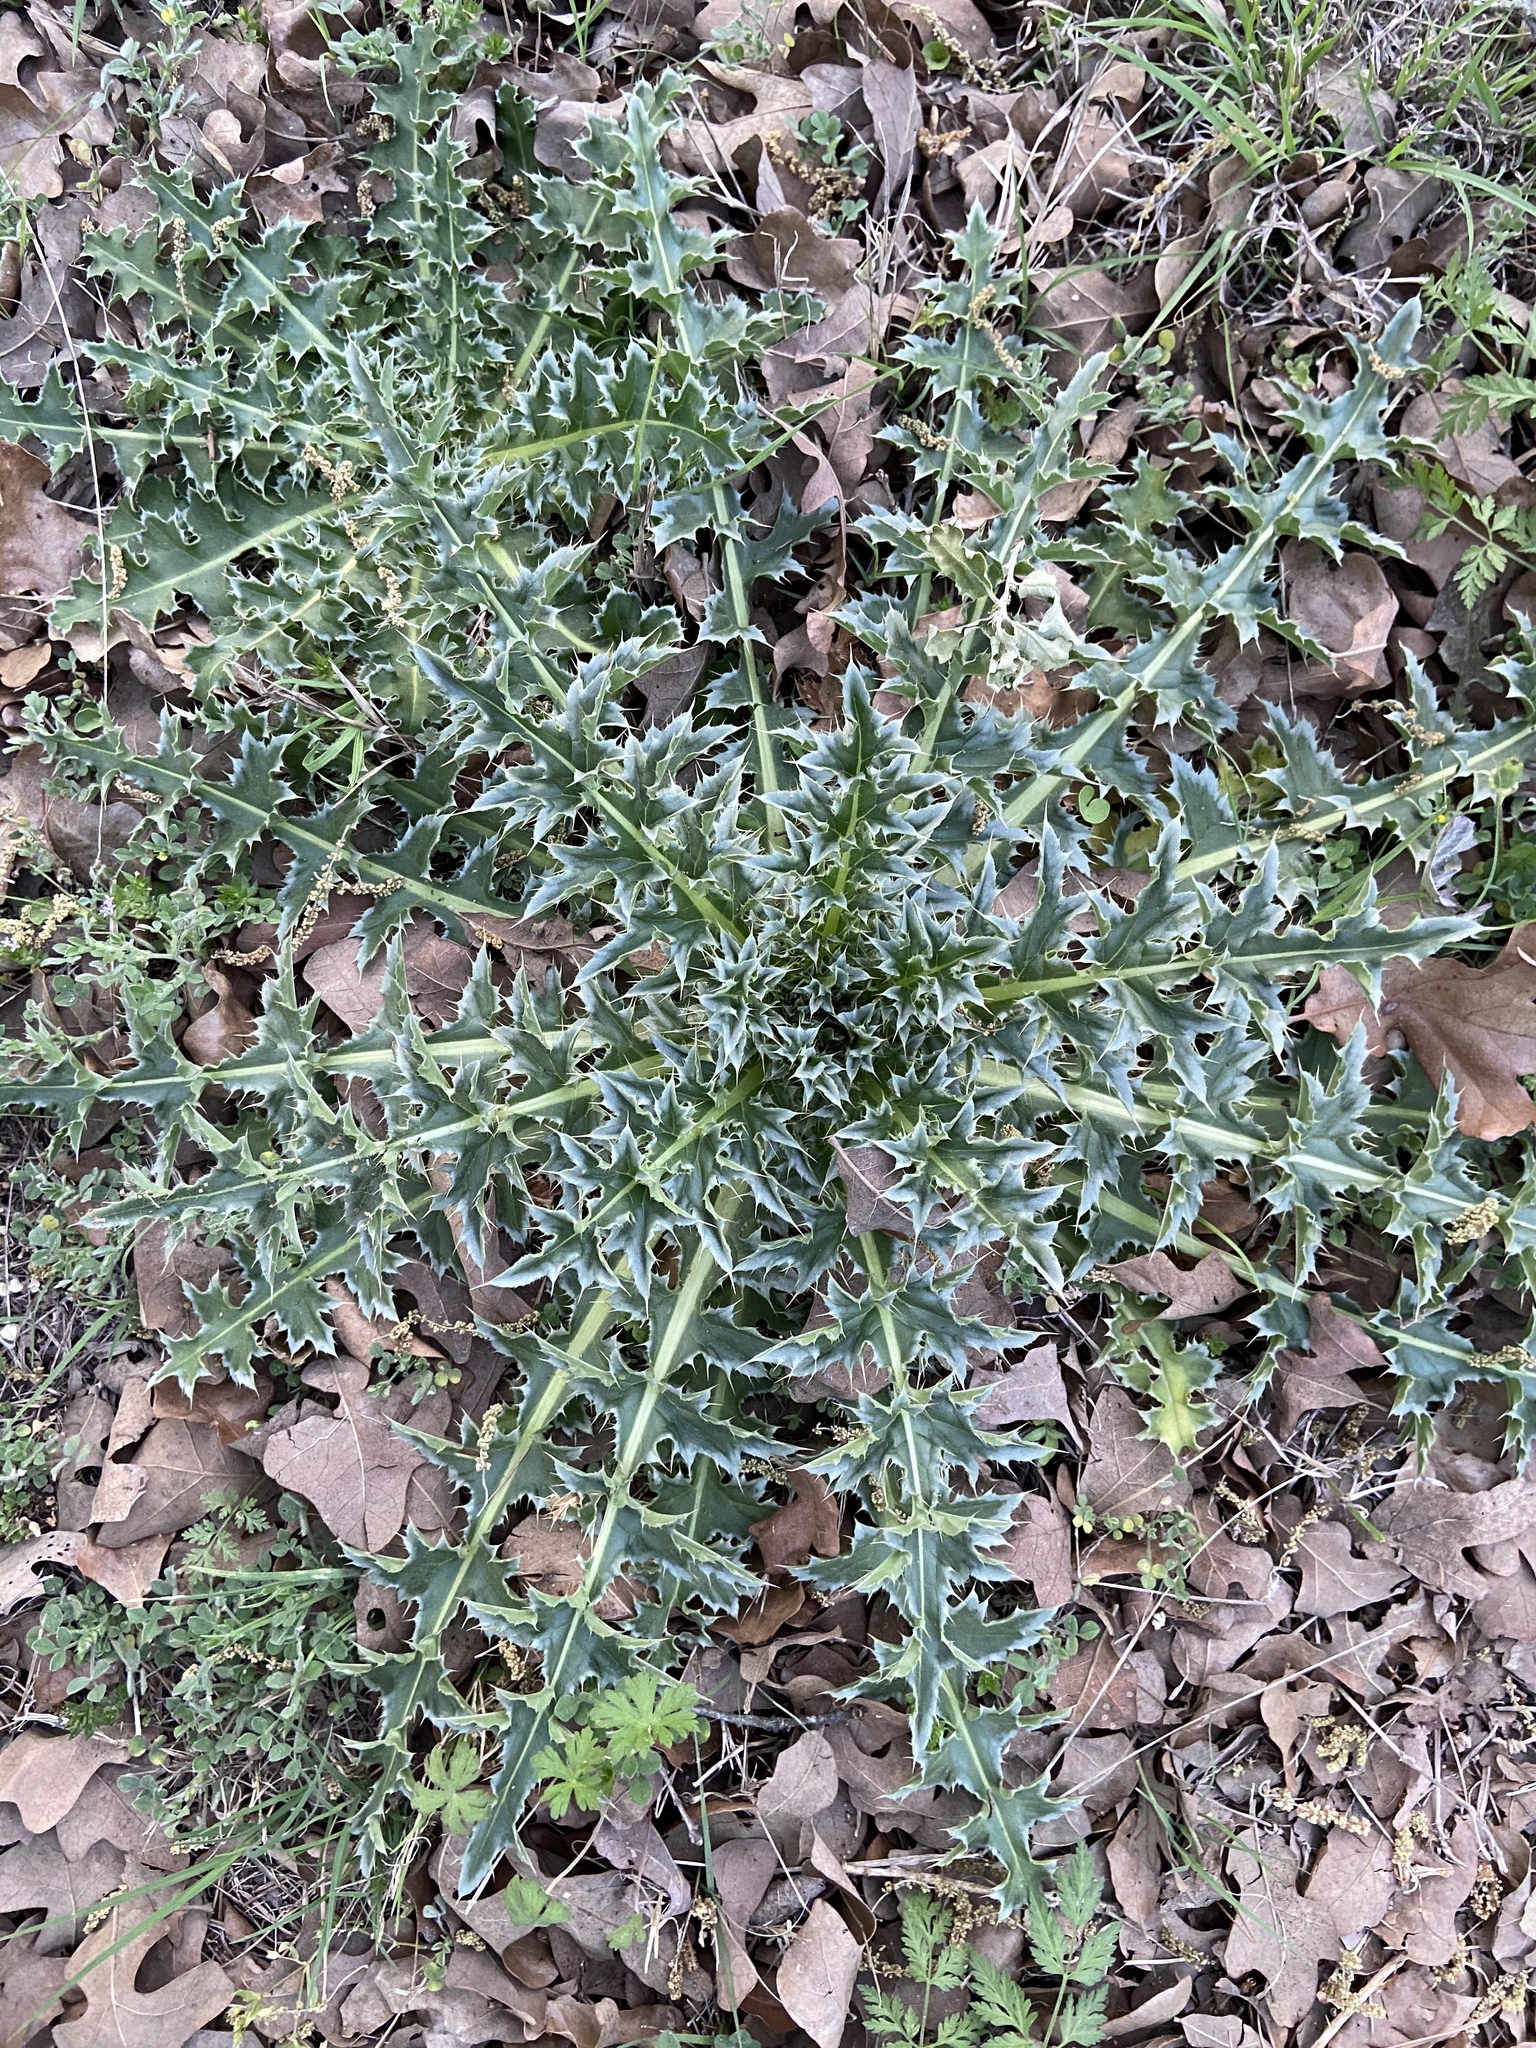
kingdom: Plantae
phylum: Tracheophyta
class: Magnoliopsida
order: Asterales
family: Asteraceae
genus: Cirsium
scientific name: Cirsium texanum
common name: Texas purple thistle
